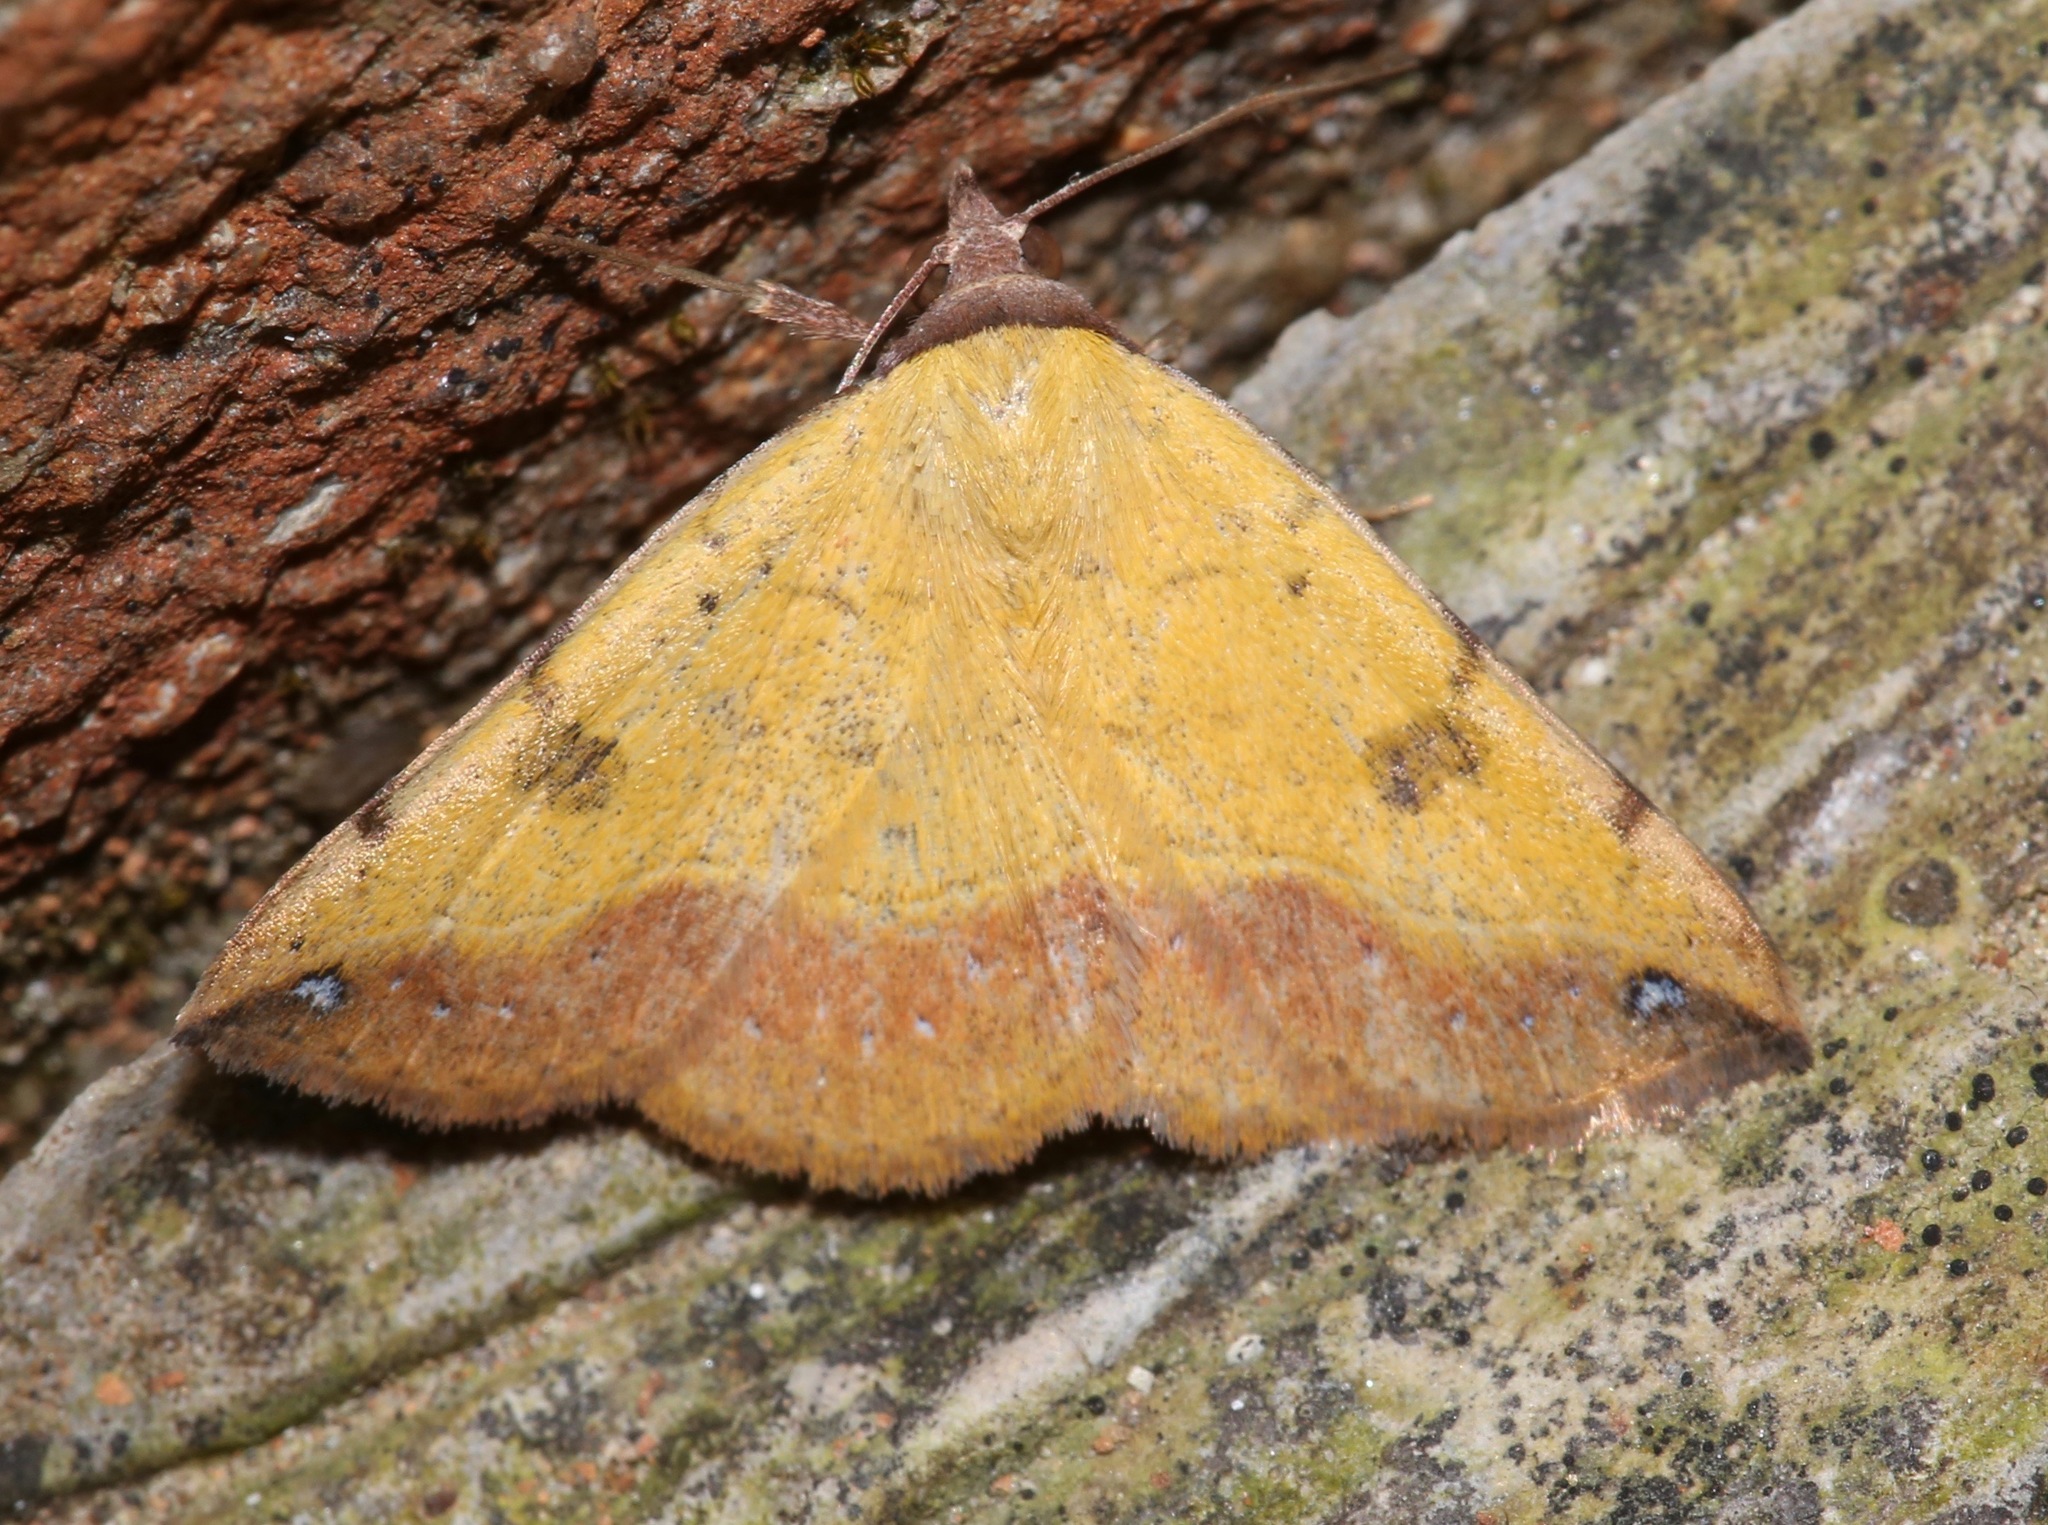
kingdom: Animalia
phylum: Arthropoda
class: Insecta
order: Lepidoptera
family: Erebidae
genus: Hemeroplanis
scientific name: Hemeroplanis scopulepes
